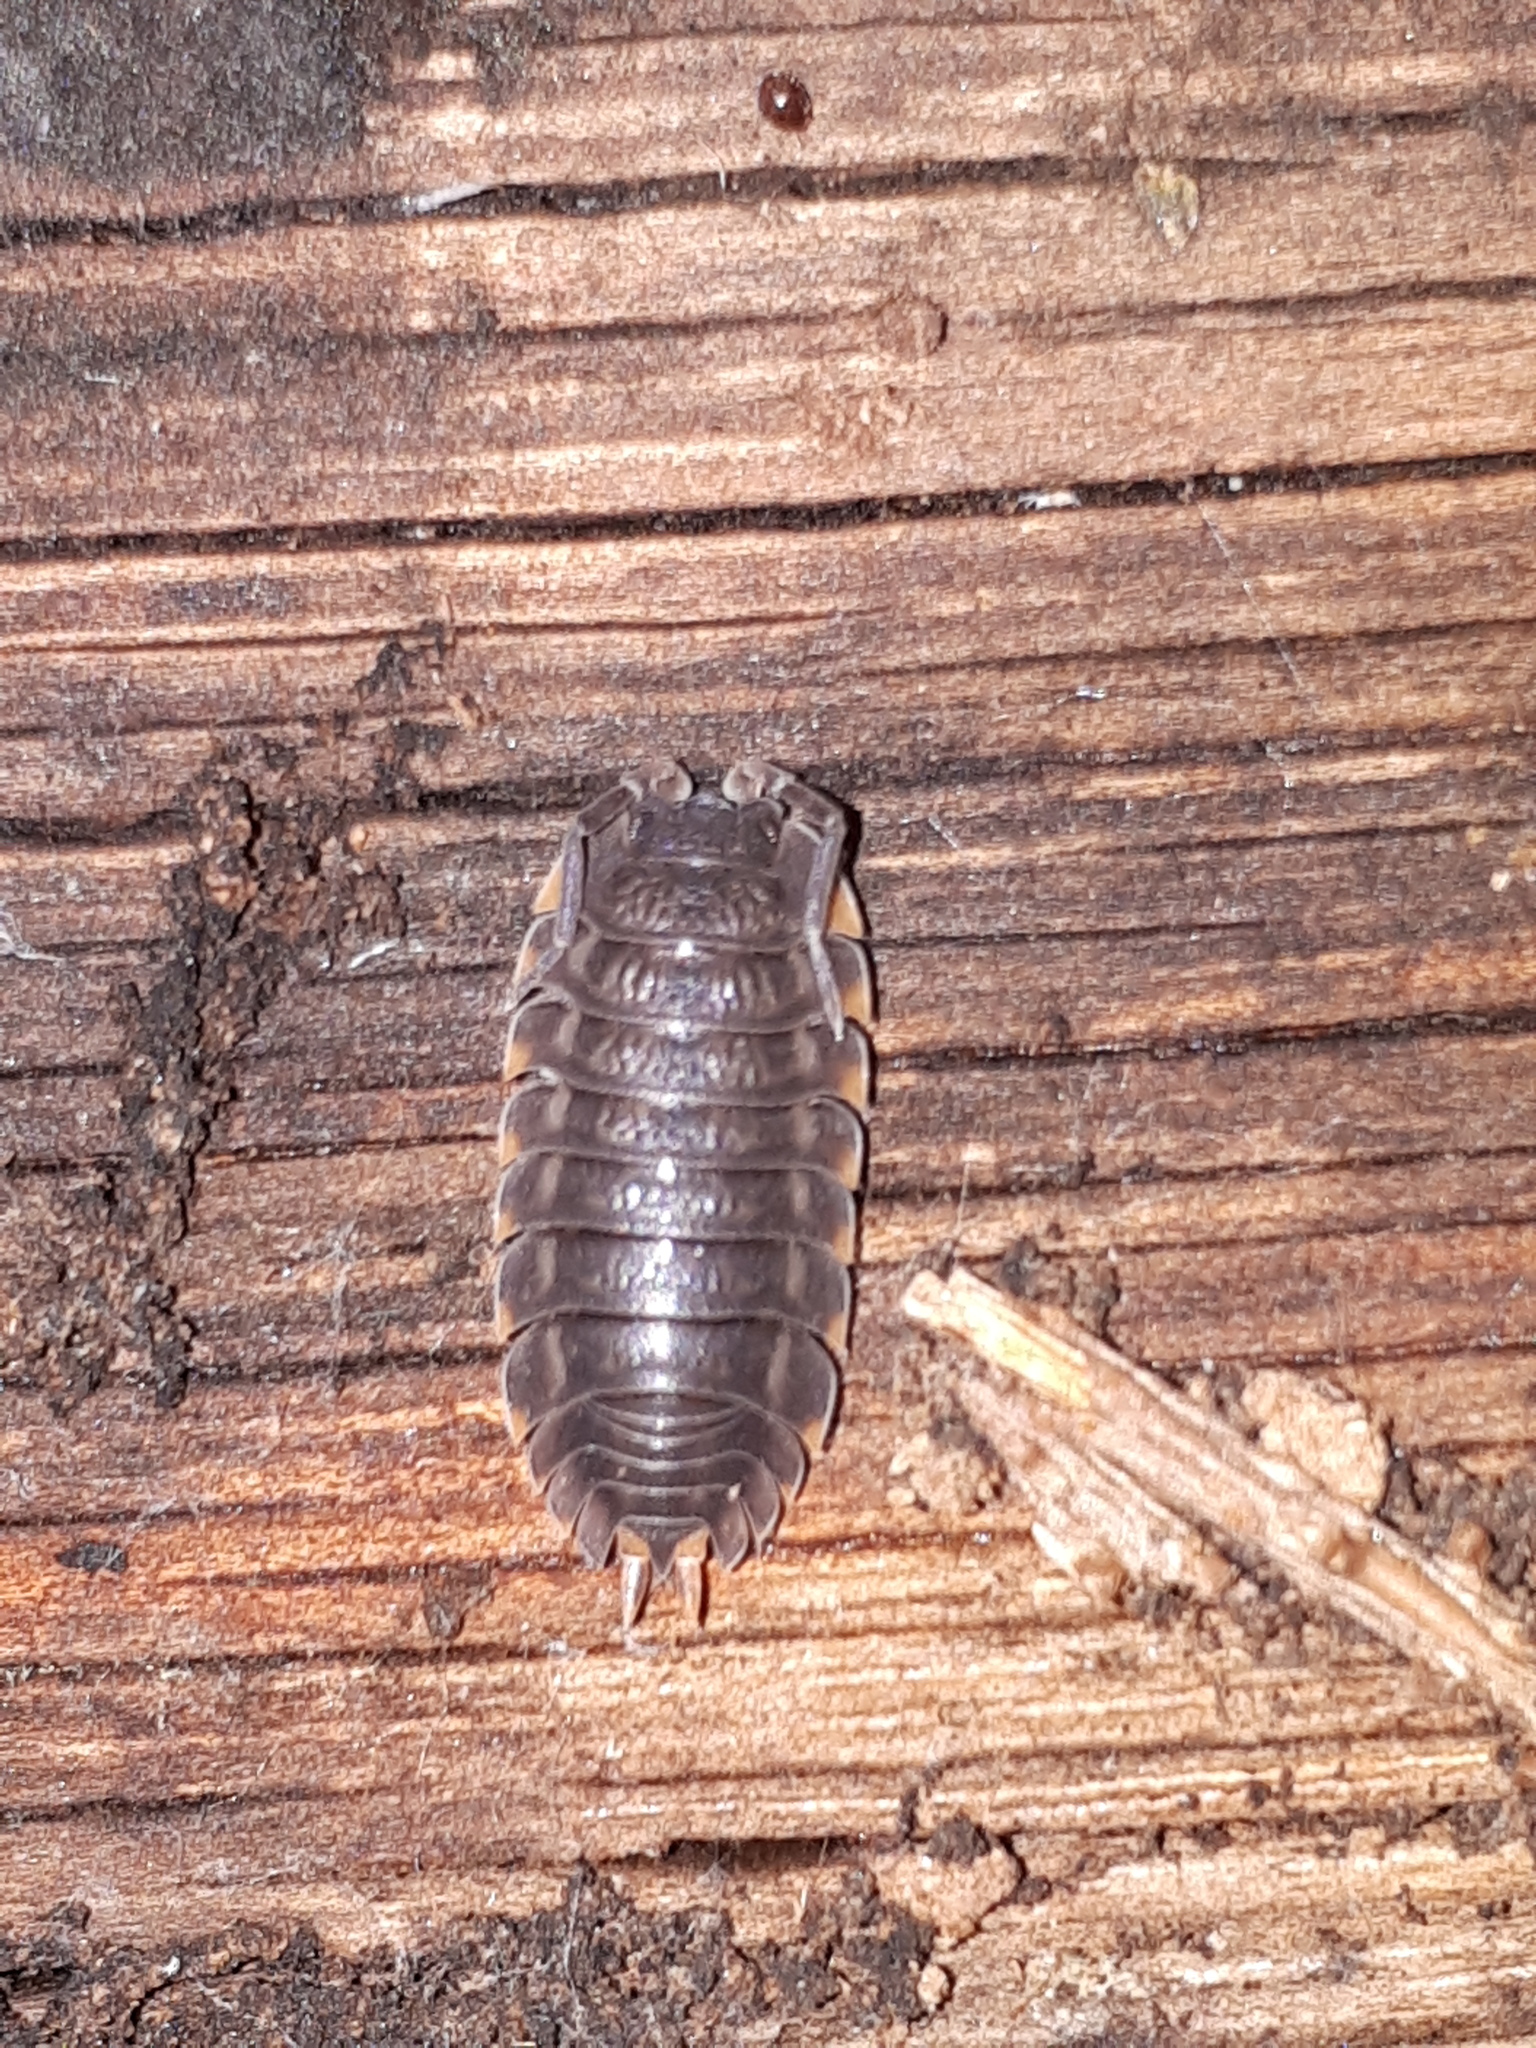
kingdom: Animalia
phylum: Arthropoda
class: Malacostraca
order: Isopoda
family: Trachelipodidae
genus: Trachelipus
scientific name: Trachelipus ratzeburgii
